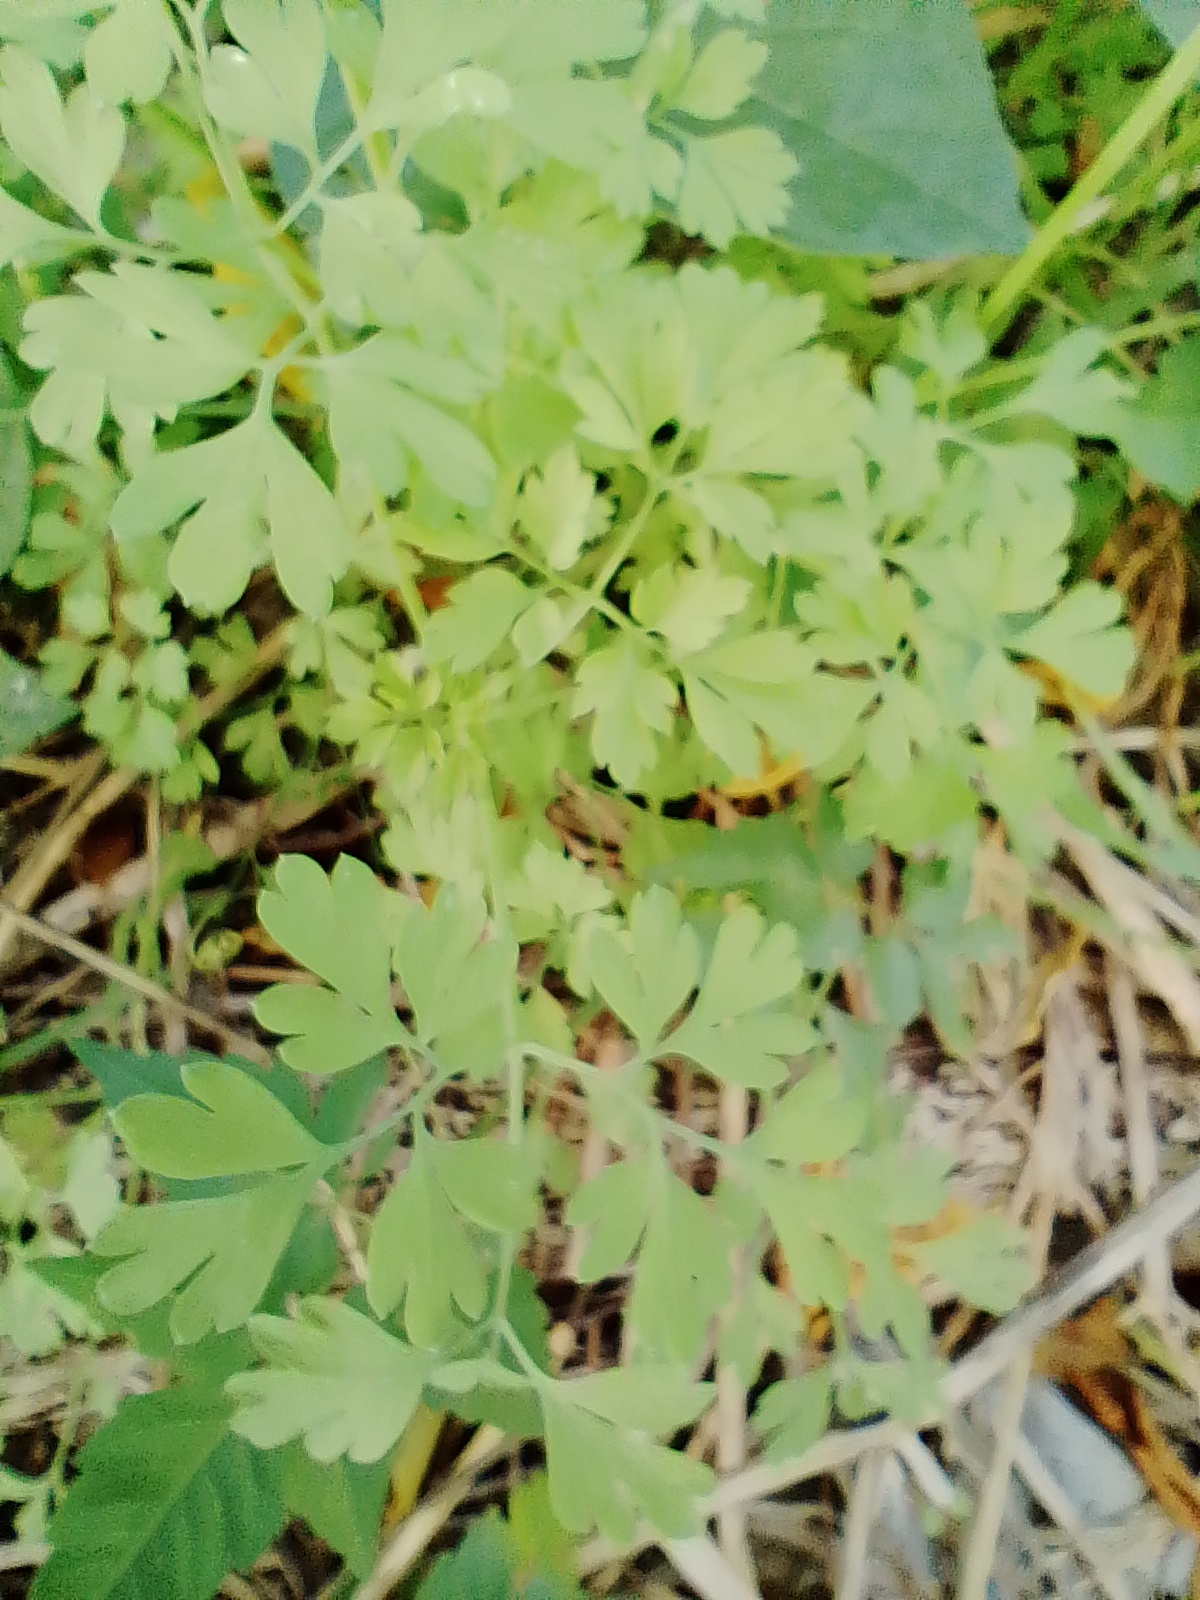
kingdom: Plantae
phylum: Tracheophyta
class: Magnoliopsida
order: Ranunculales
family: Papaveraceae
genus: Fumaria
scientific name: Fumaria capreolata
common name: White ramping-fumitory
